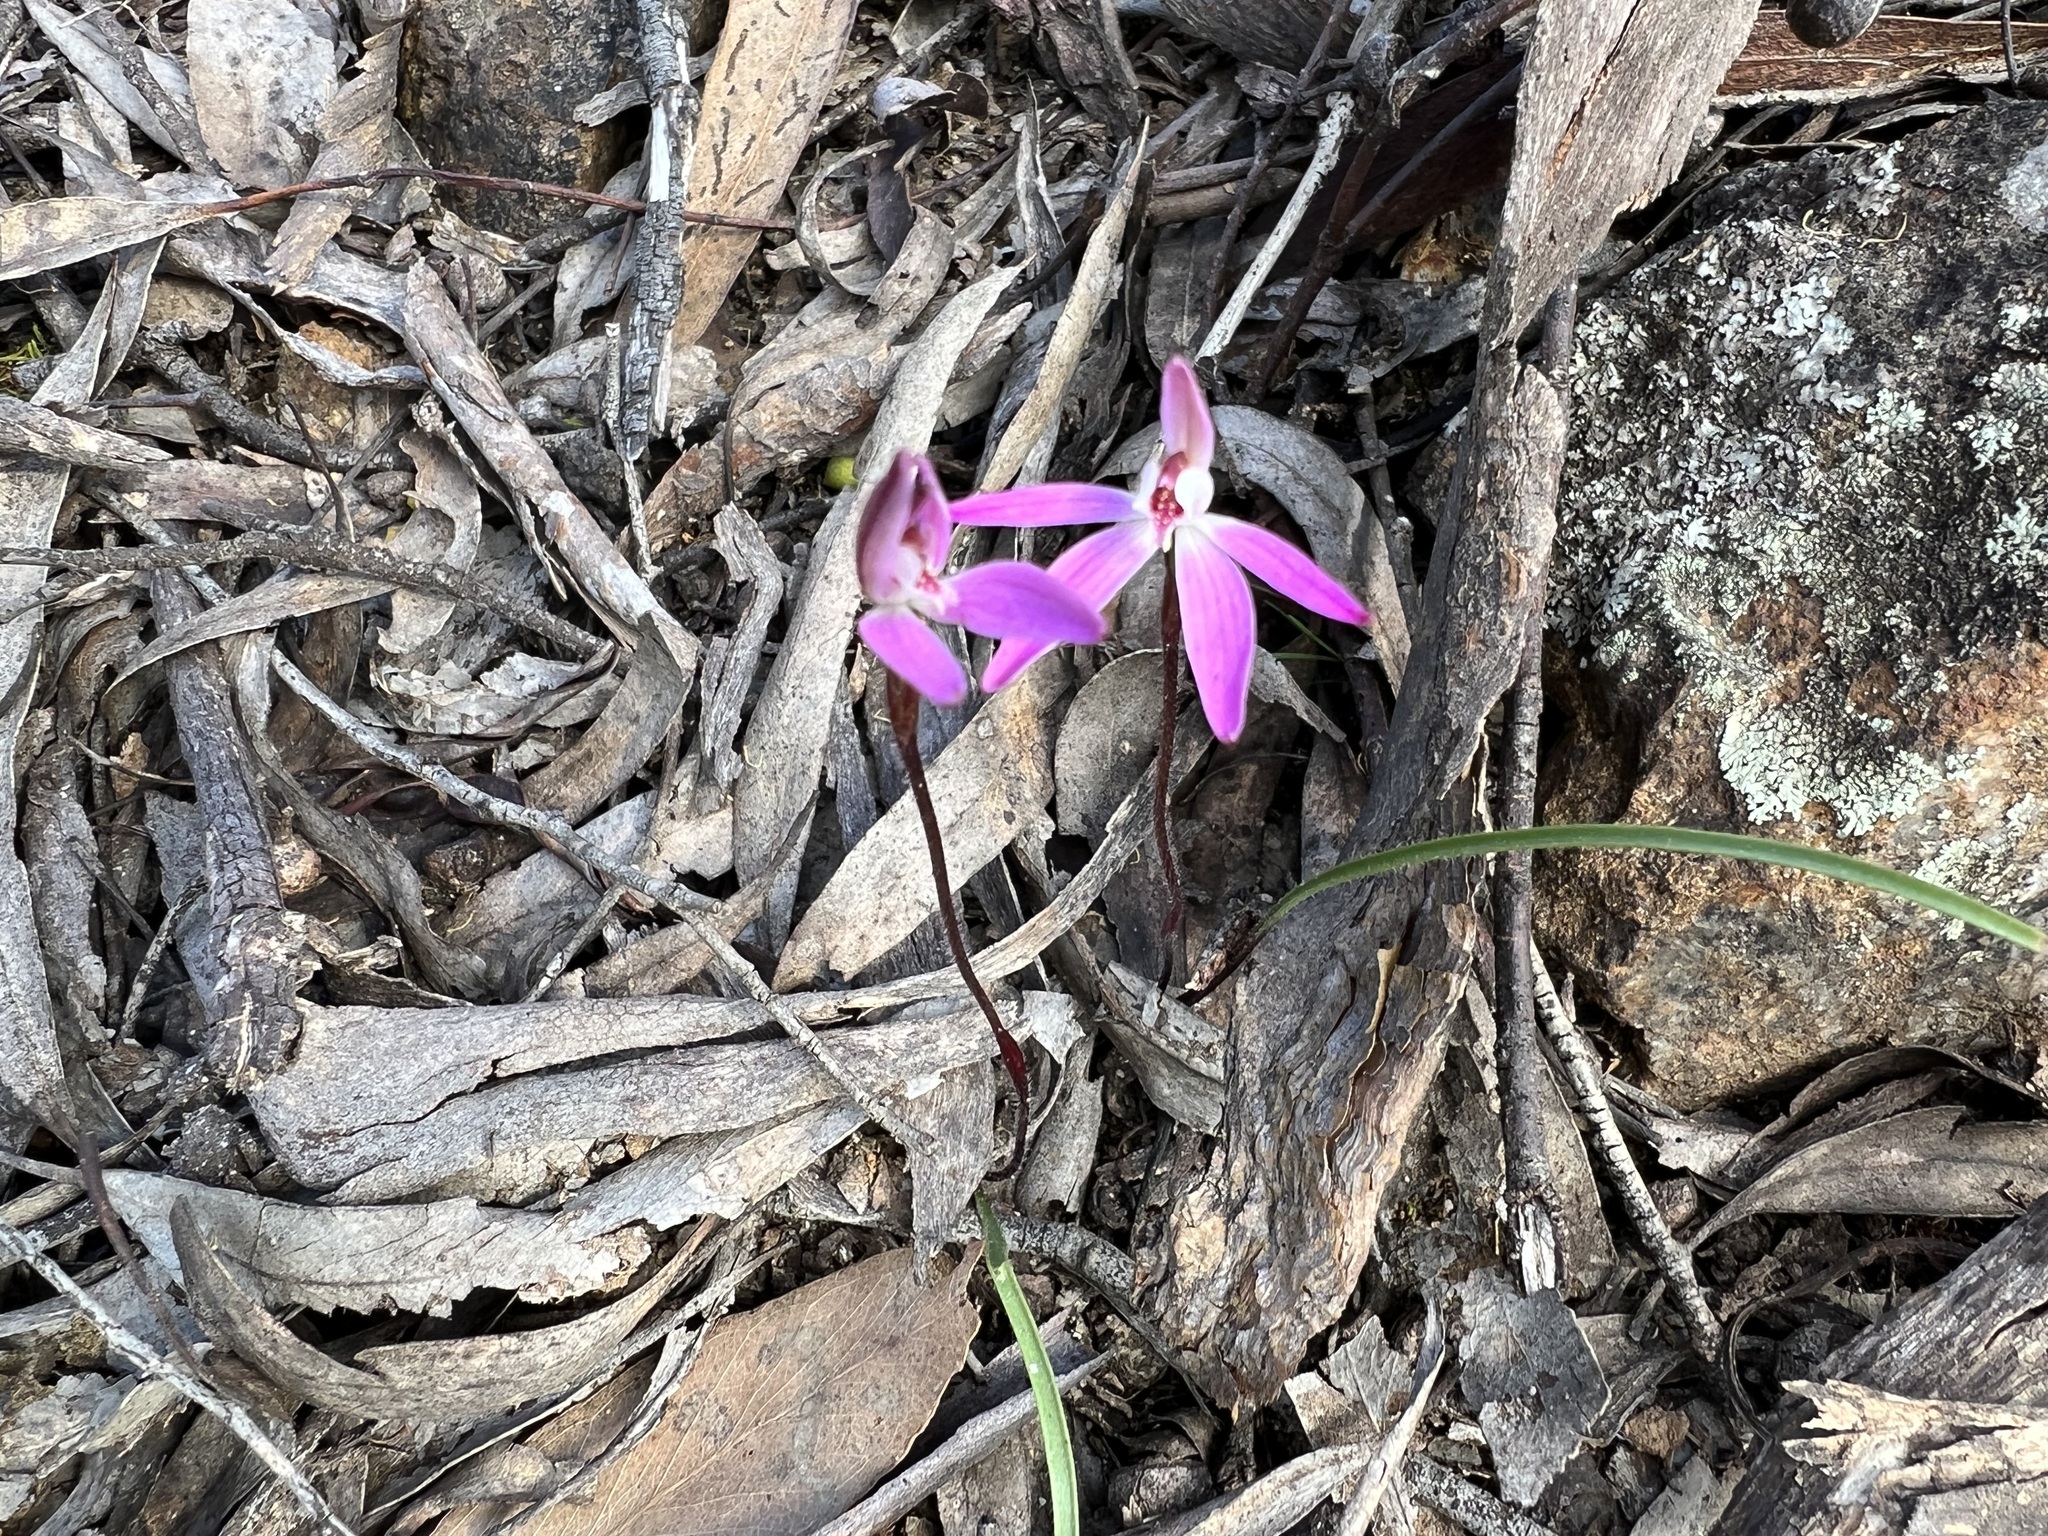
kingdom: Plantae
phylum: Tracheophyta
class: Liliopsida
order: Asparagales
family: Orchidaceae
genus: Caladenia
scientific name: Caladenia fuscata
